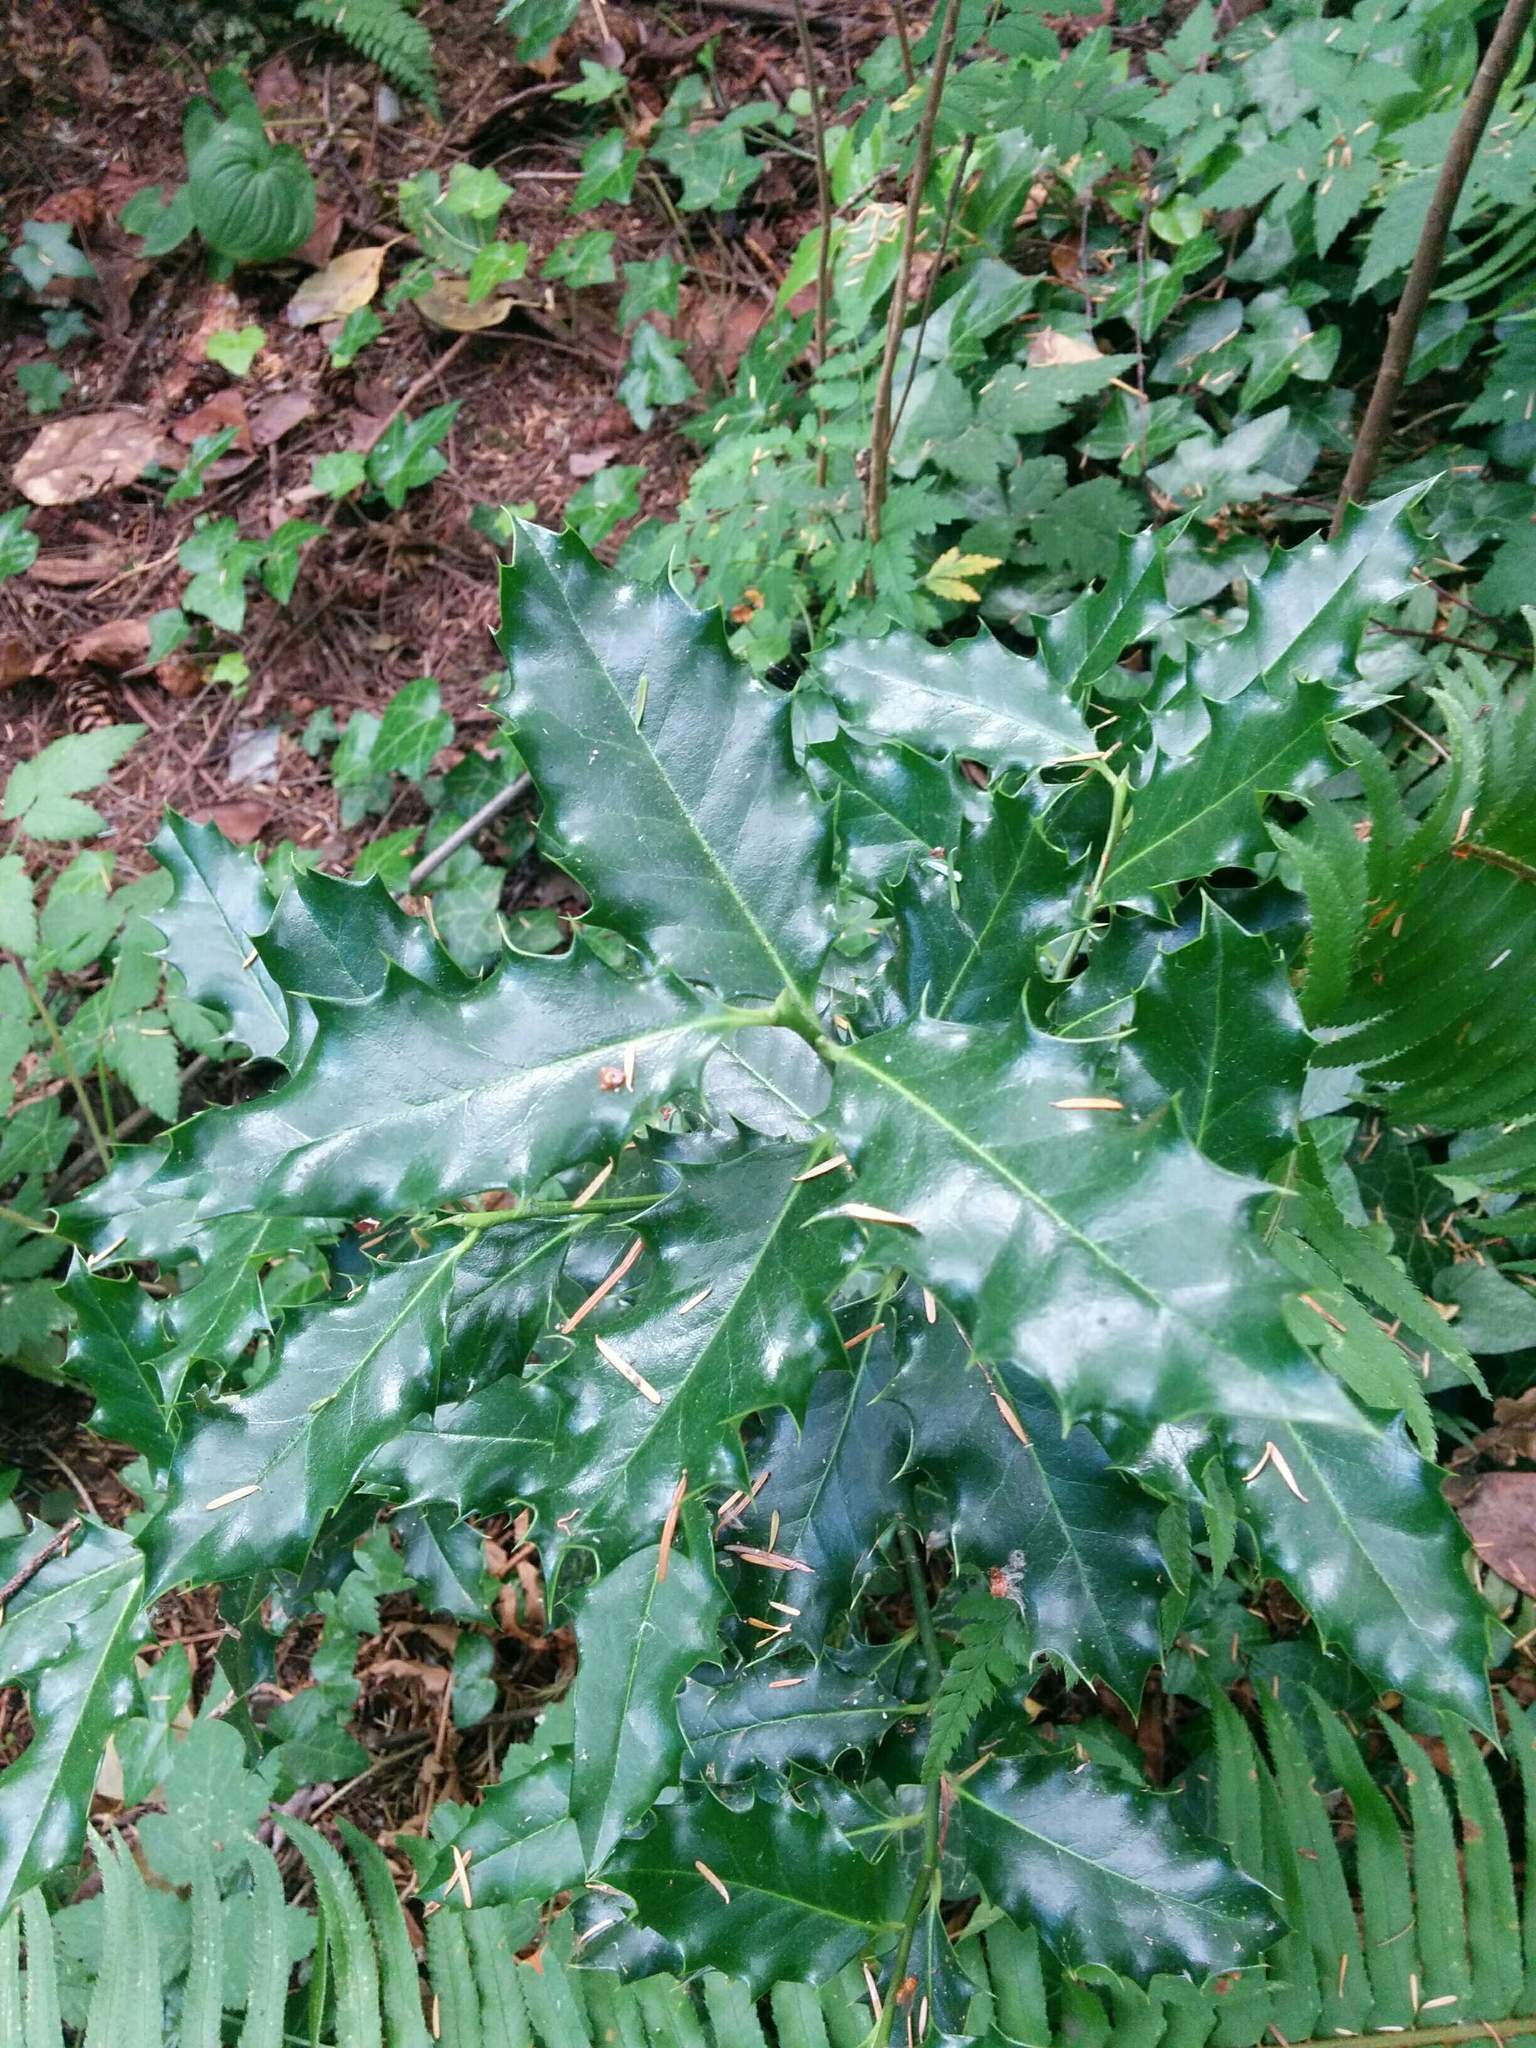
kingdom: Plantae
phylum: Tracheophyta
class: Magnoliopsida
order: Aquifoliales
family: Aquifoliaceae
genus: Ilex
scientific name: Ilex aquifolium
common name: English holly
